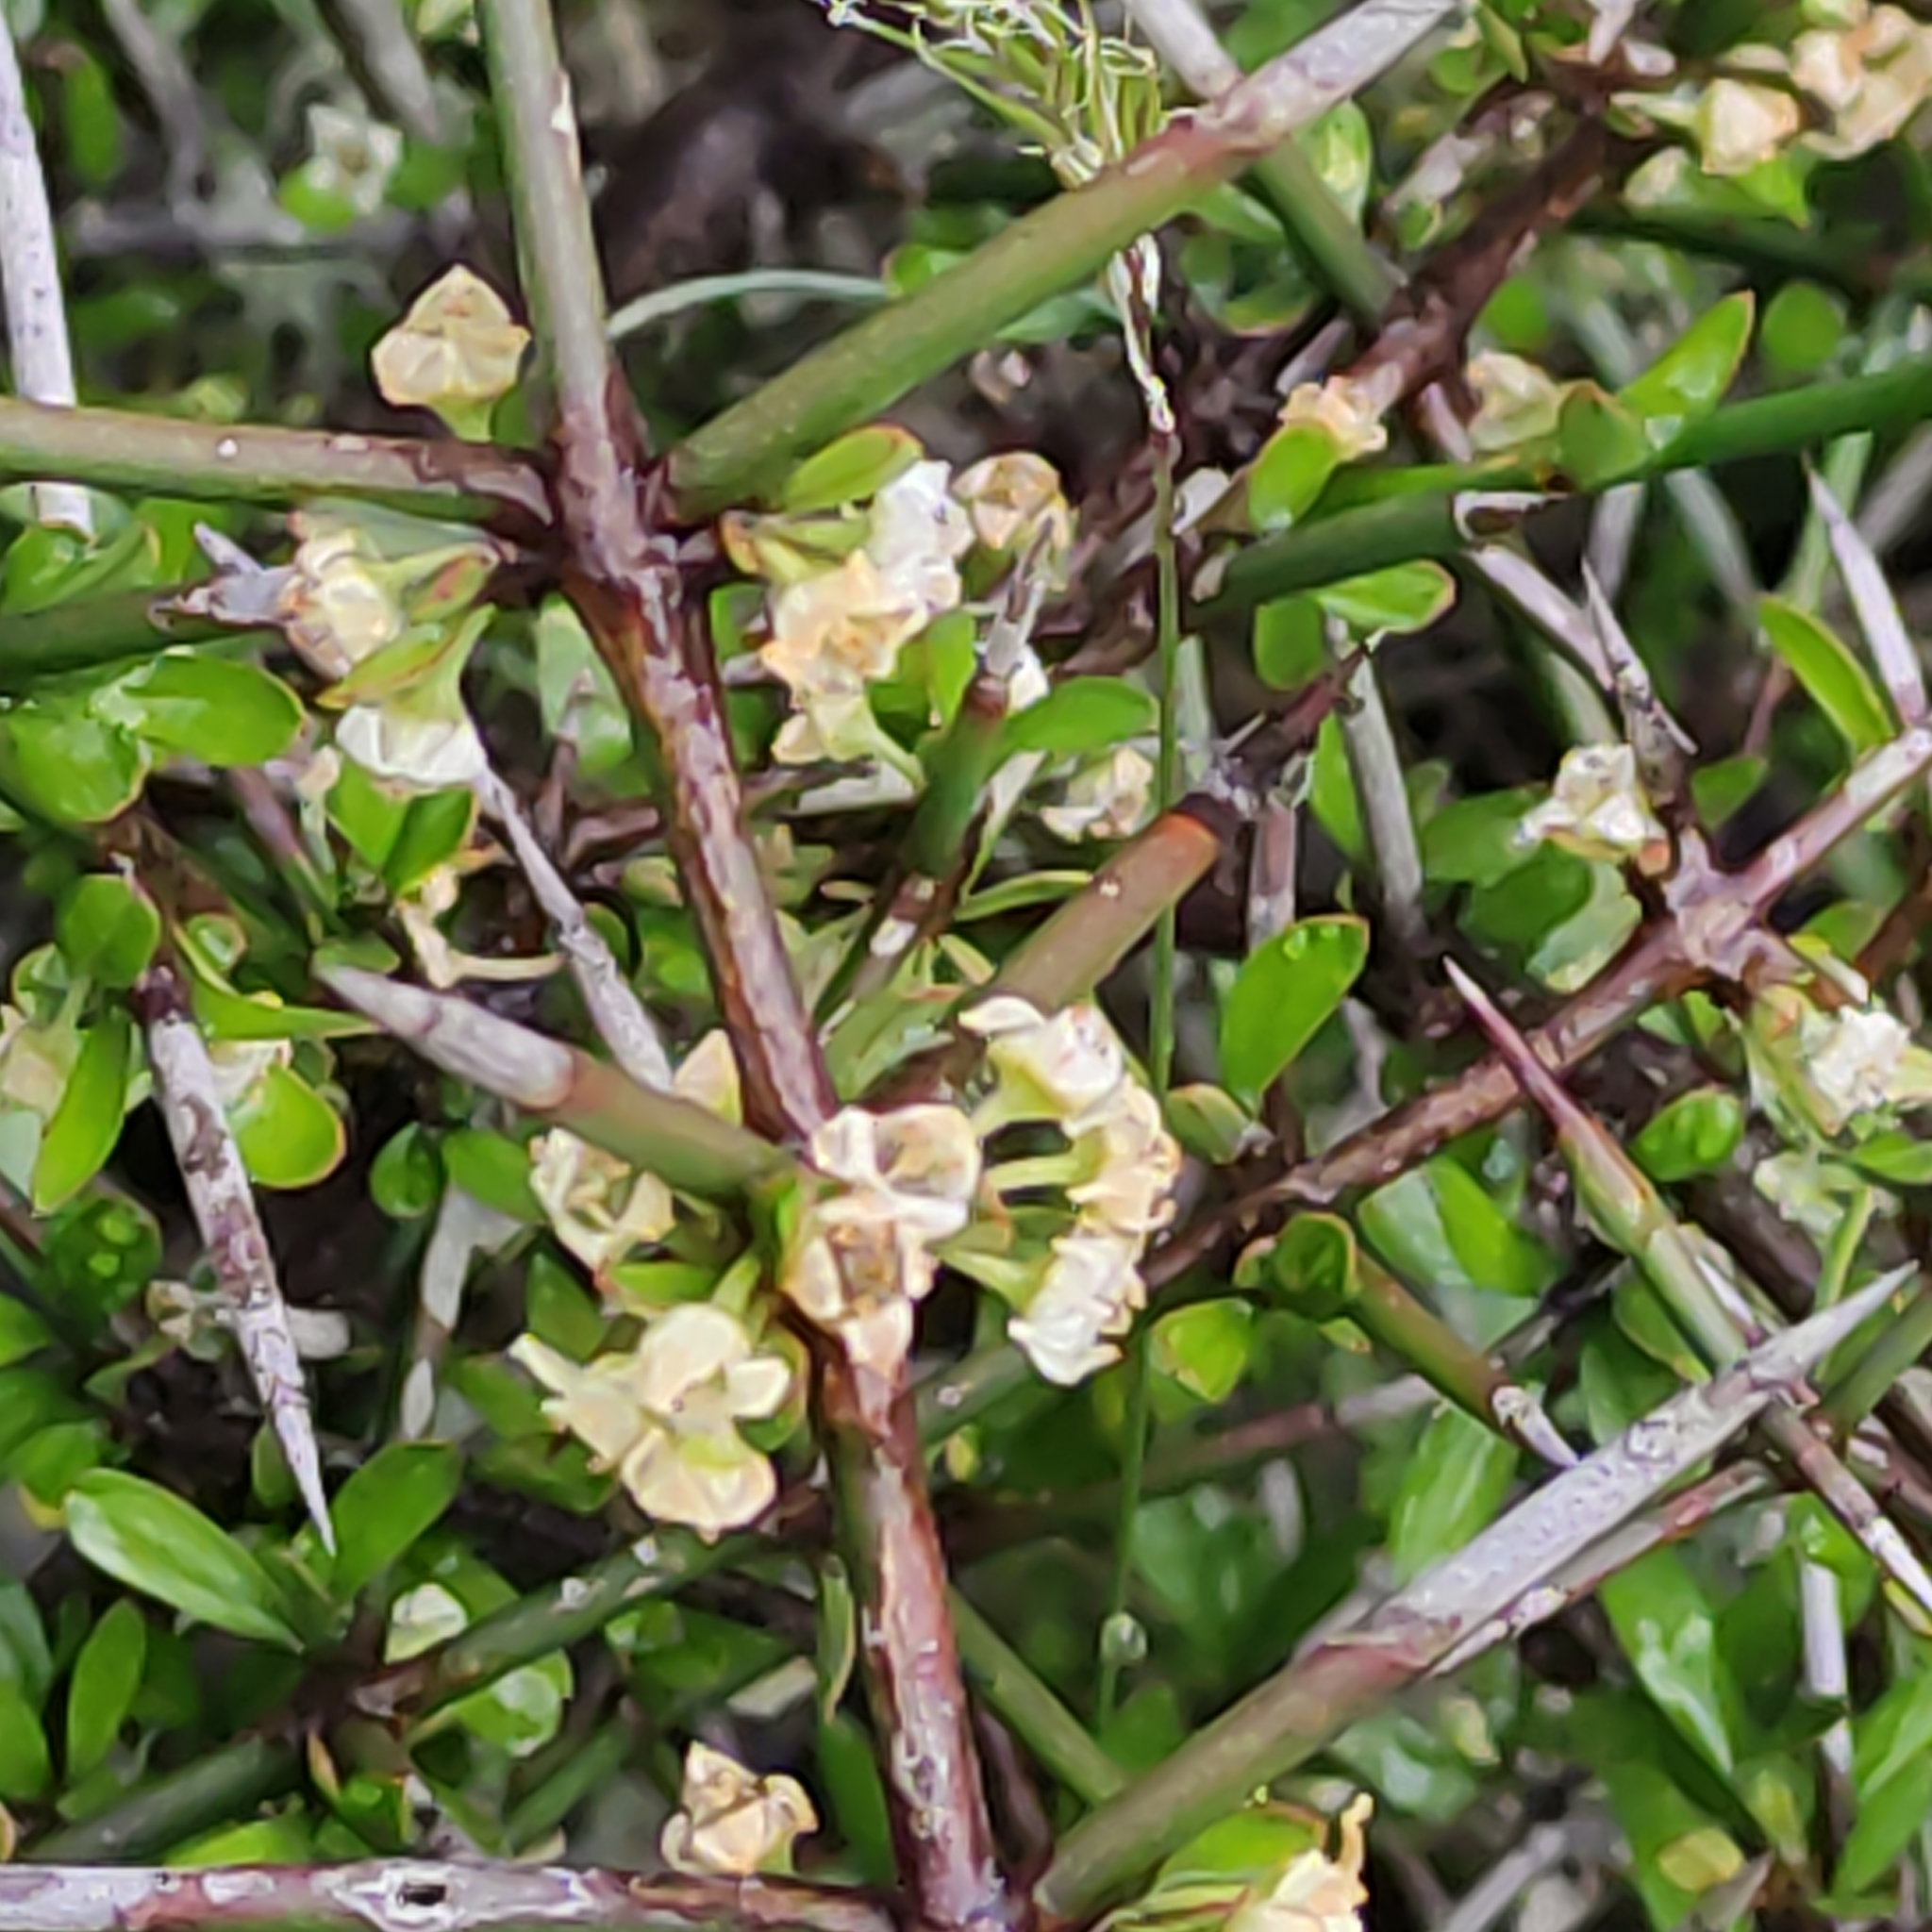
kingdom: Plantae
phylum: Tracheophyta
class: Magnoliopsida
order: Rosales
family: Rhamnaceae
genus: Discaria
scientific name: Discaria toumatou
